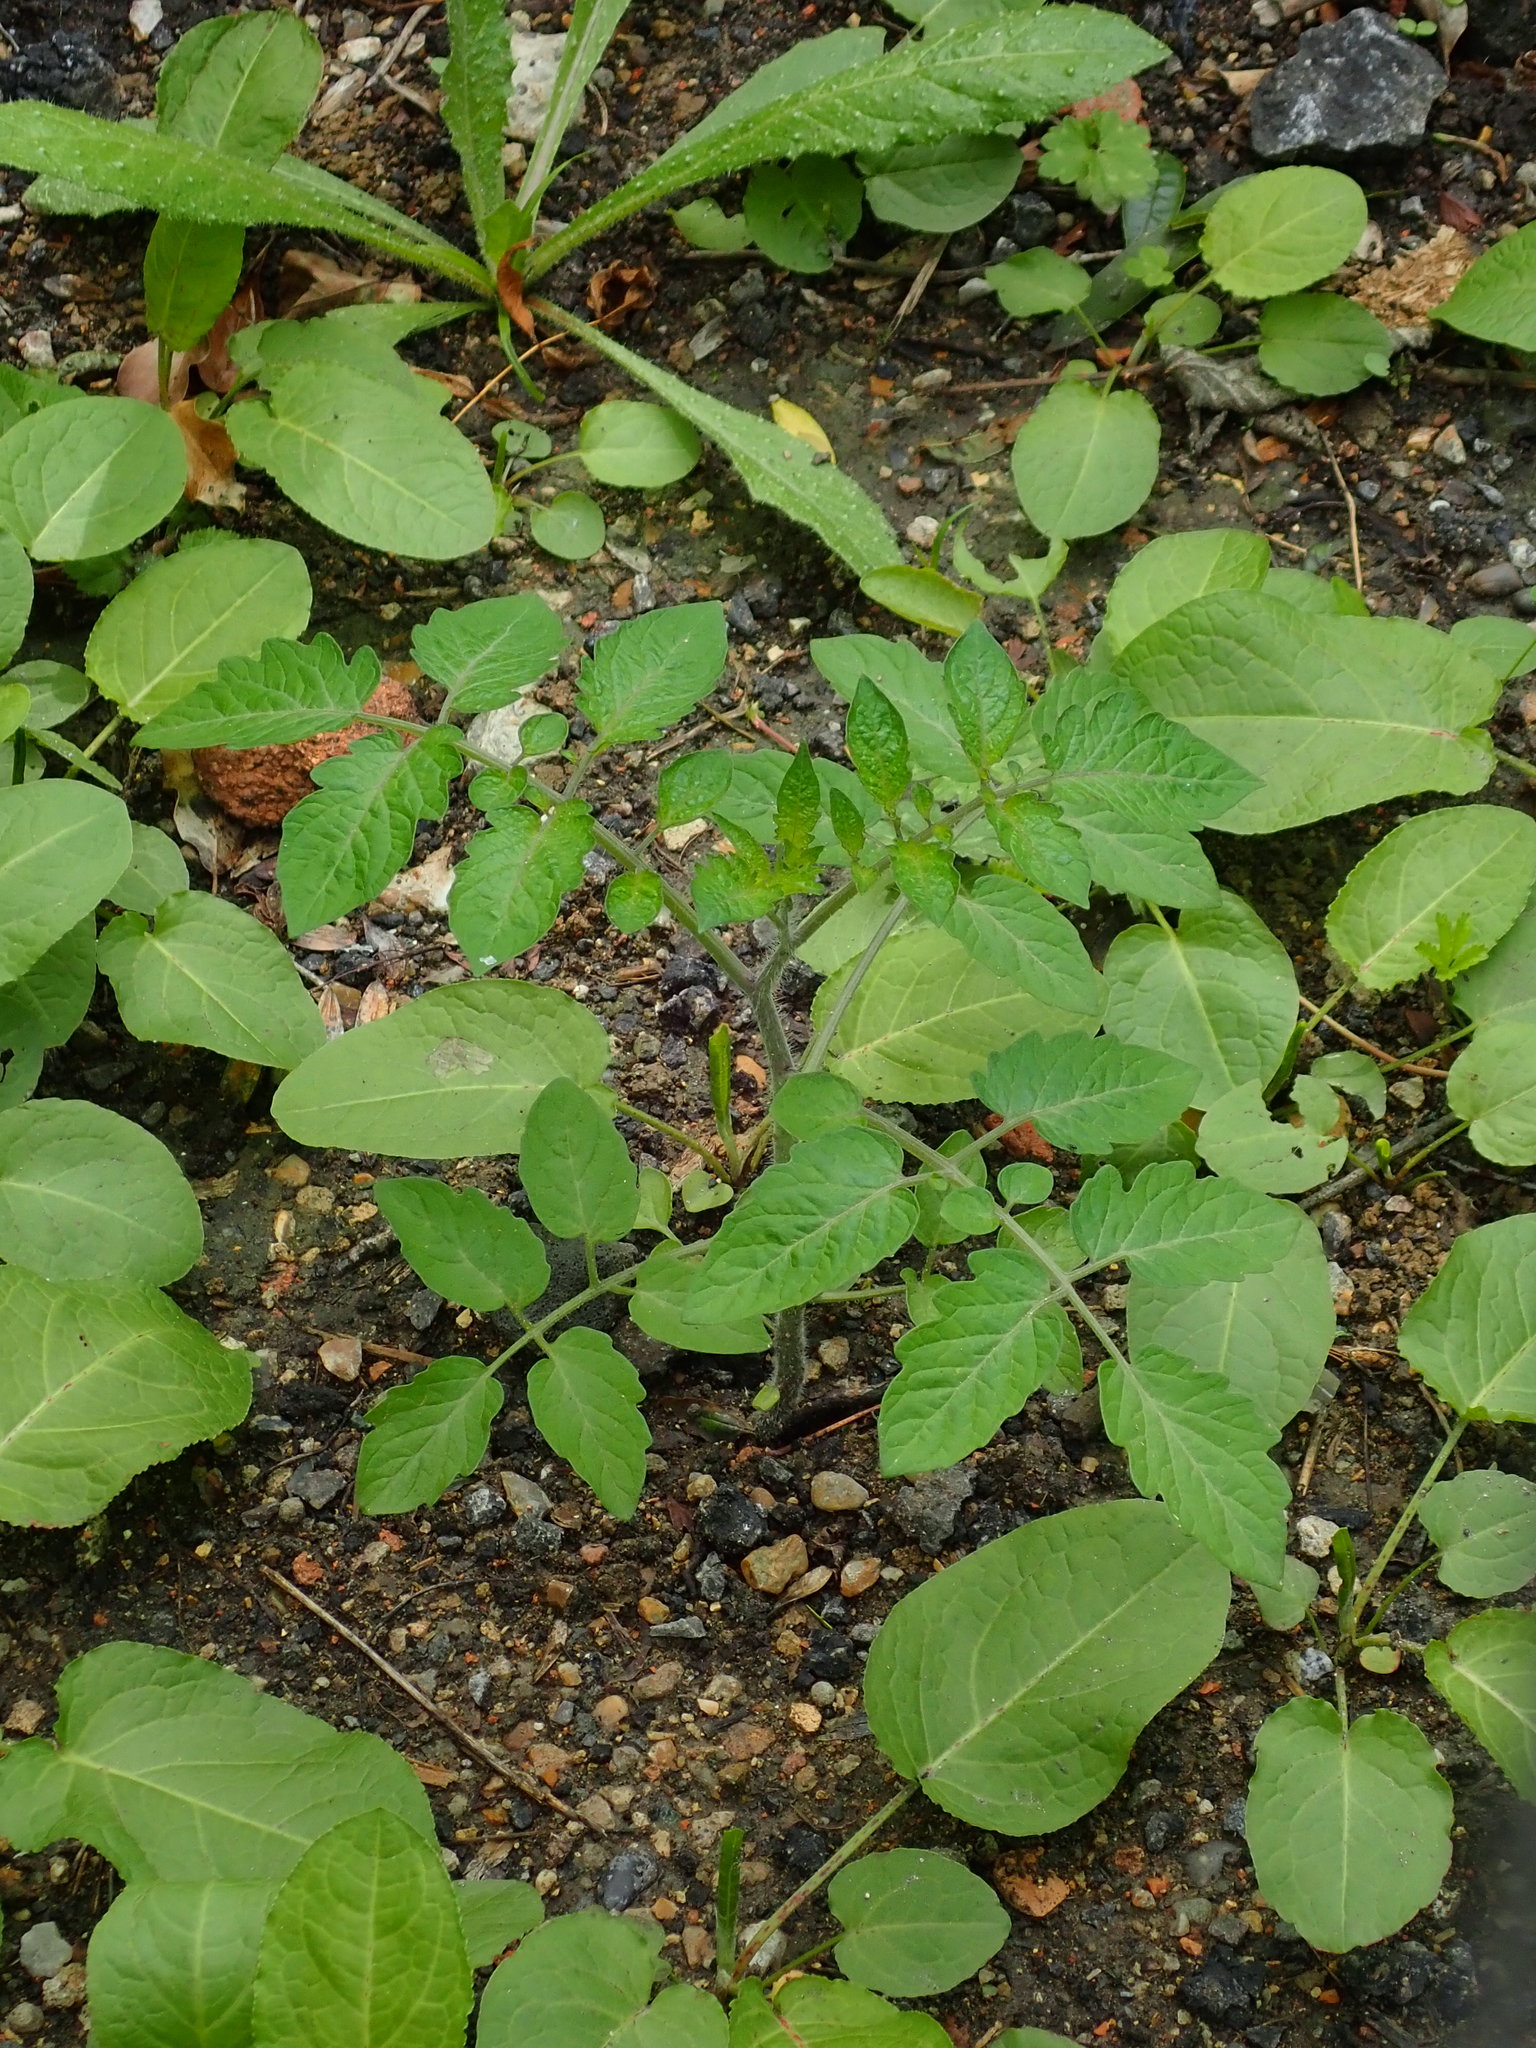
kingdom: Plantae
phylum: Tracheophyta
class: Magnoliopsida
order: Solanales
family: Solanaceae
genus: Solanum
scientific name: Solanum lycopersicum
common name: Garden tomato
